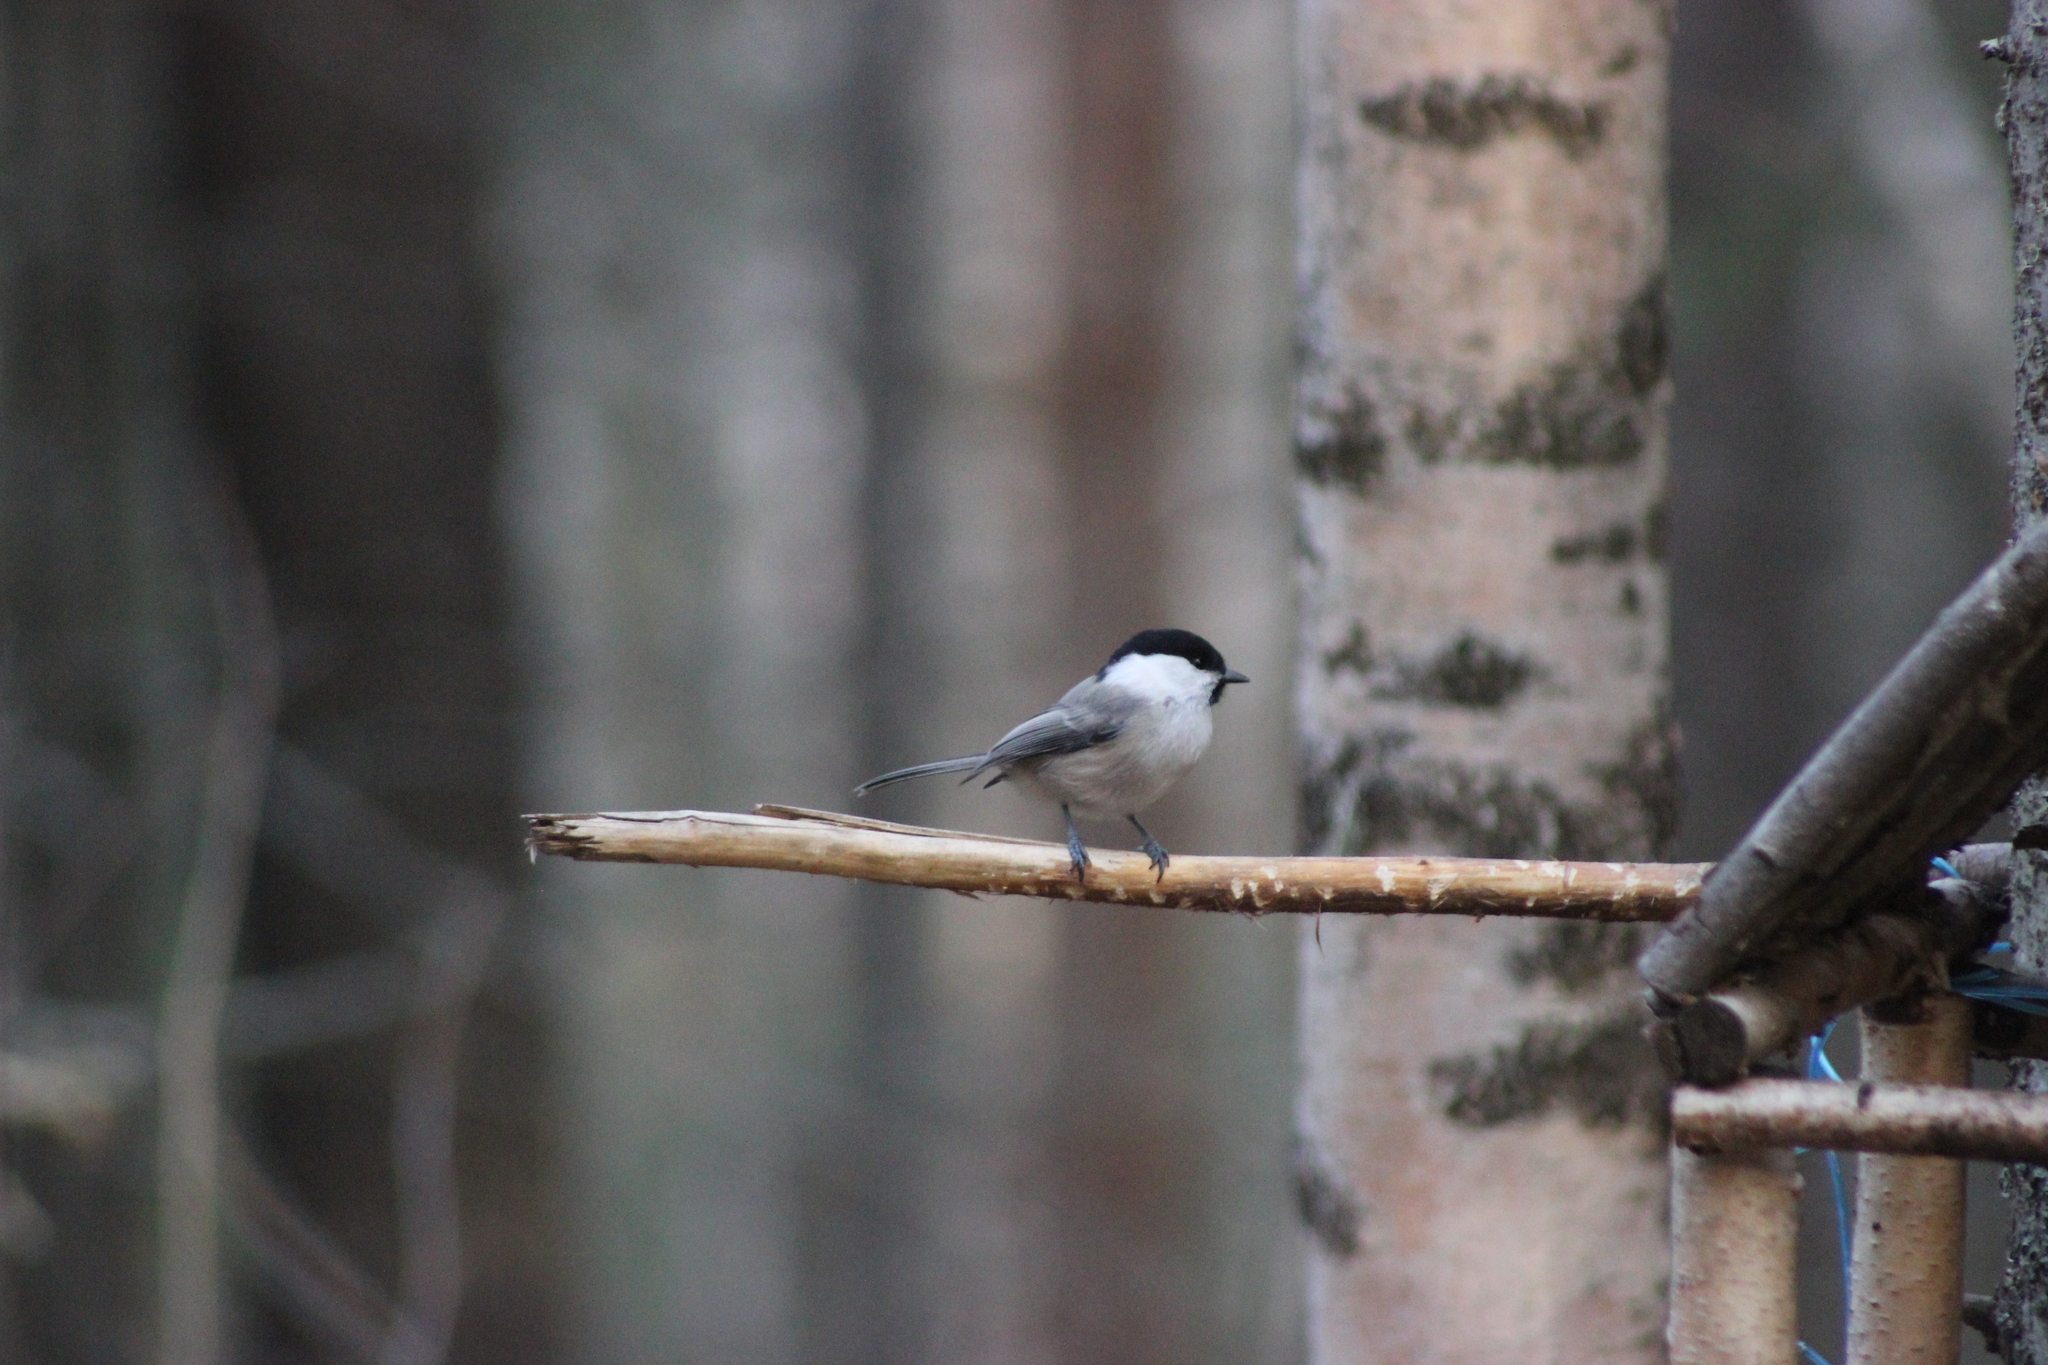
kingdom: Animalia
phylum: Chordata
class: Aves
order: Passeriformes
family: Paridae
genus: Poecile
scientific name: Poecile montanus
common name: Willow tit
